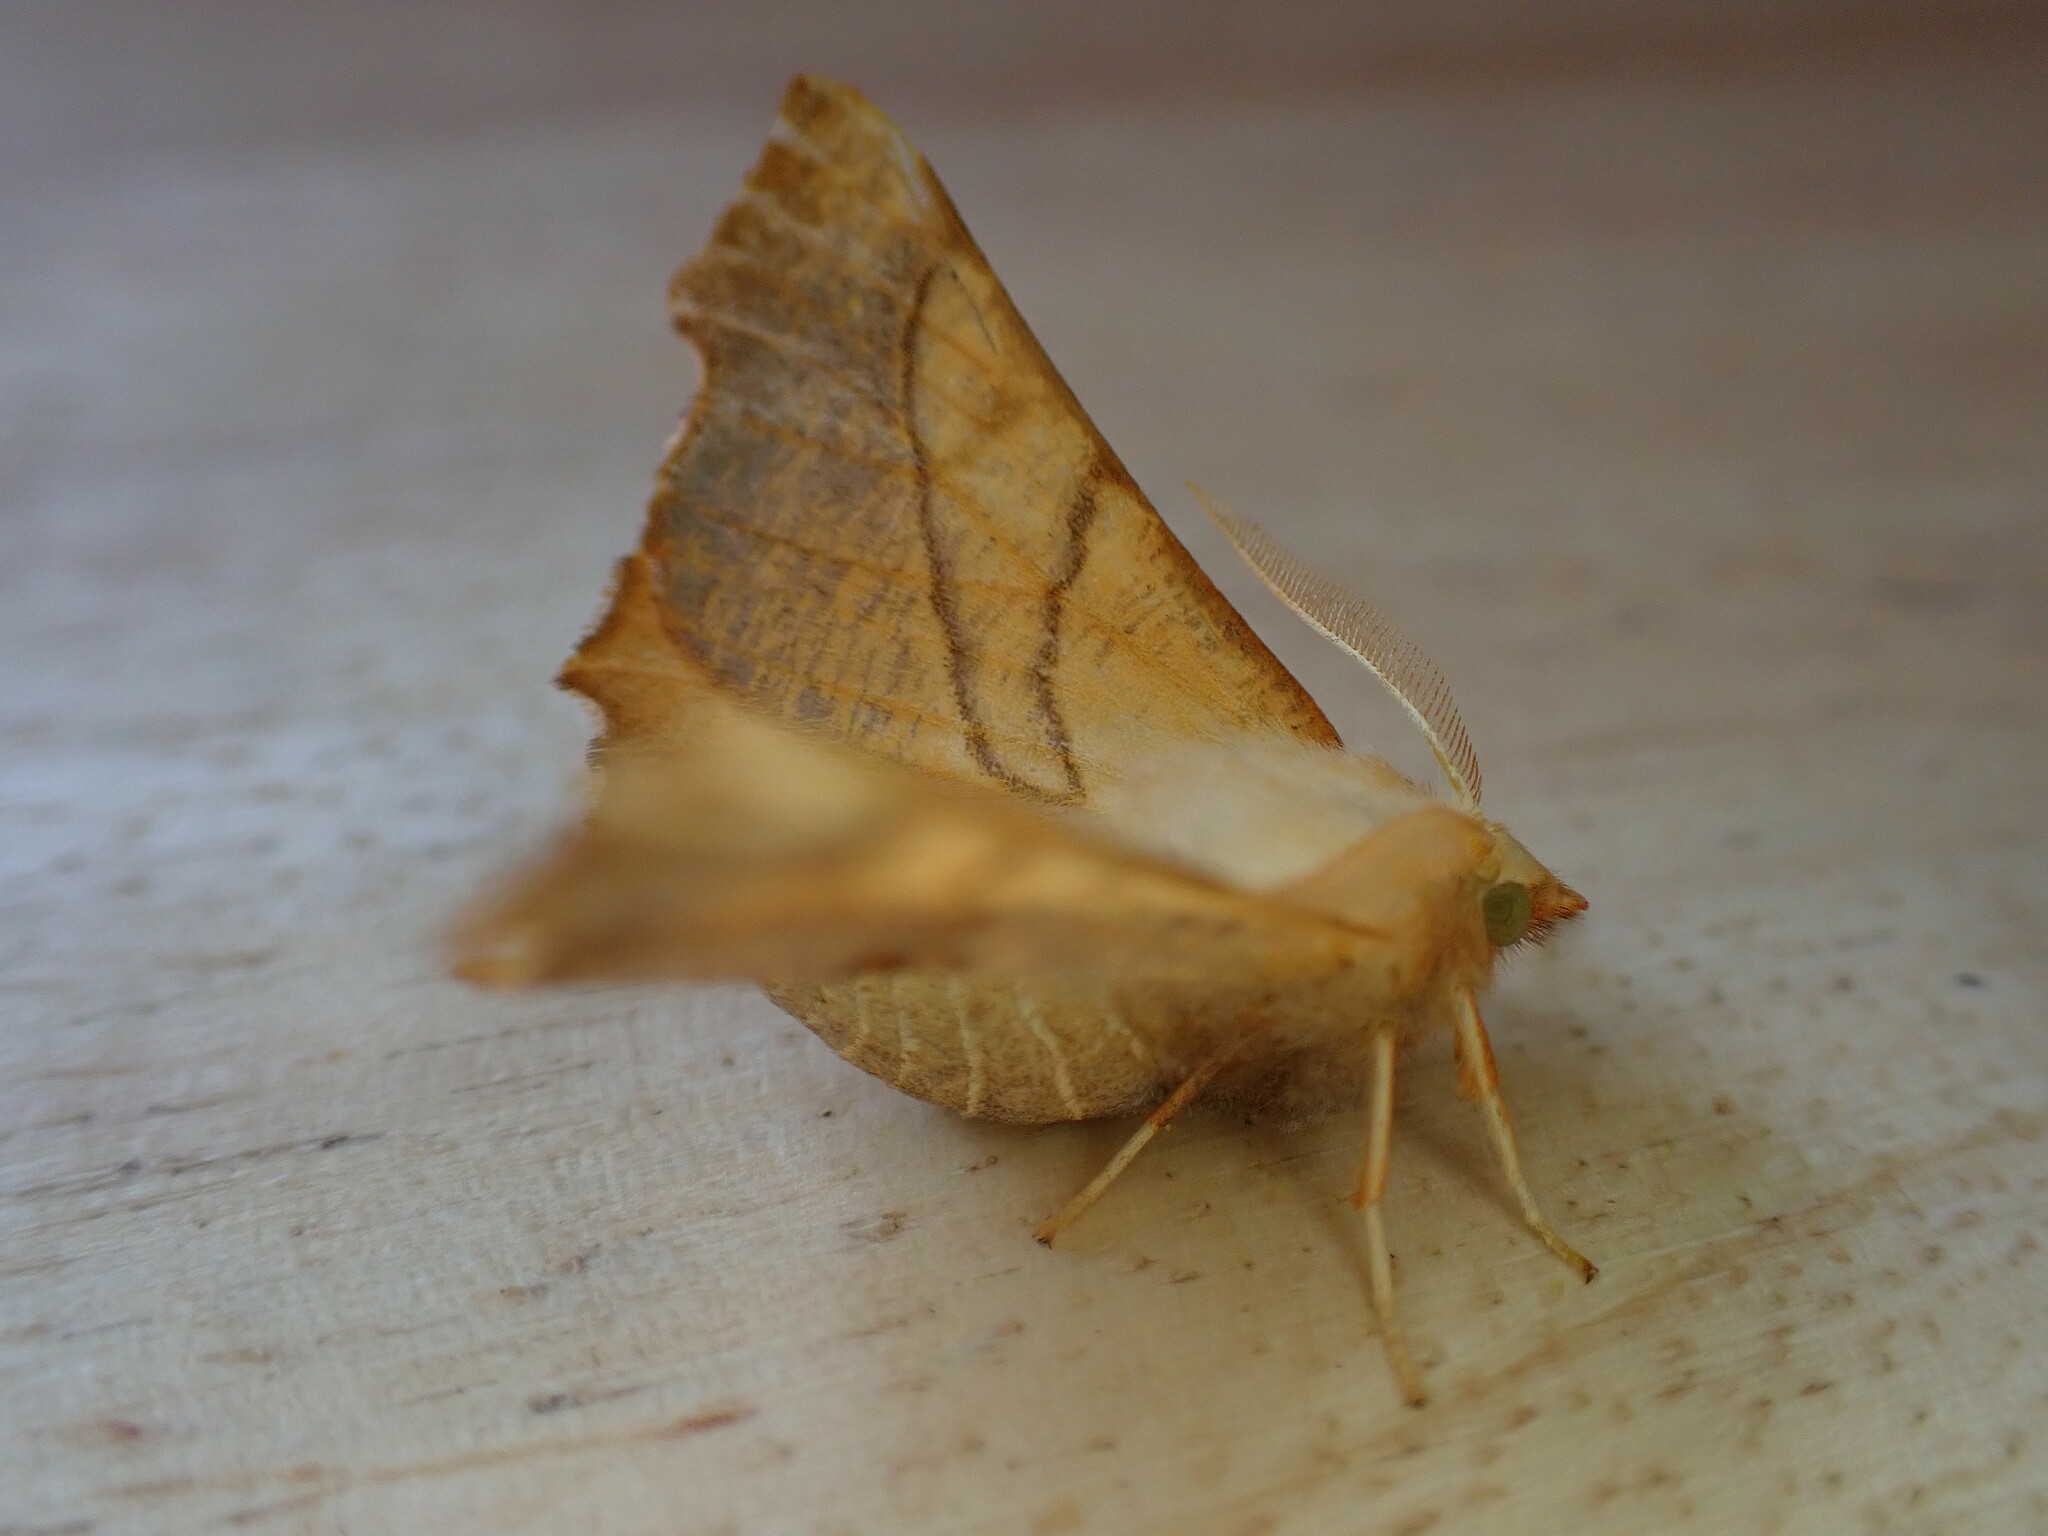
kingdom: Animalia
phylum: Arthropoda
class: Insecta
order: Lepidoptera
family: Geometridae
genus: Ennomos
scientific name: Ennomos fuscantaria
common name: Dusky thorn
